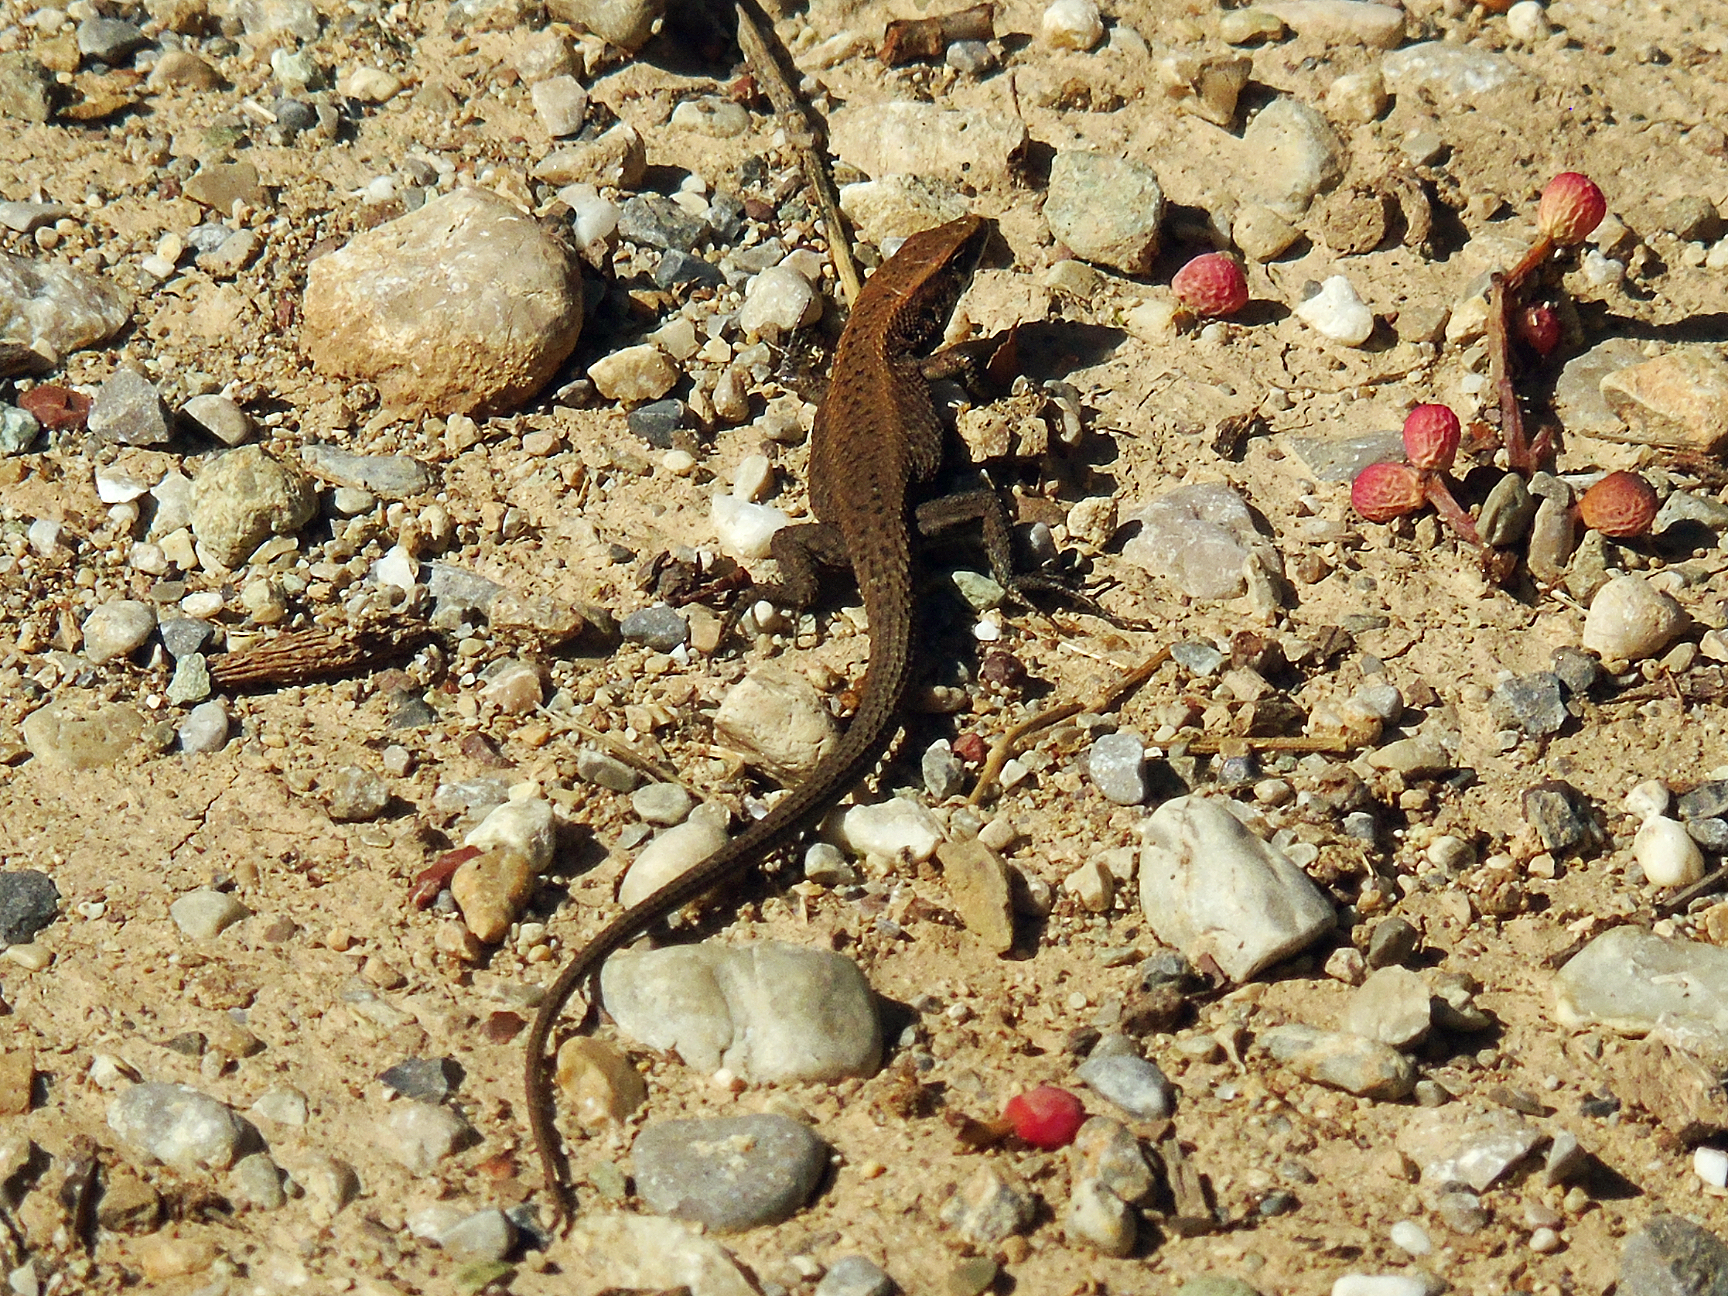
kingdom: Animalia
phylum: Chordata
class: Squamata
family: Lacertidae
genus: Algyroides
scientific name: Algyroides moreoticus
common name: Greek algyroides
